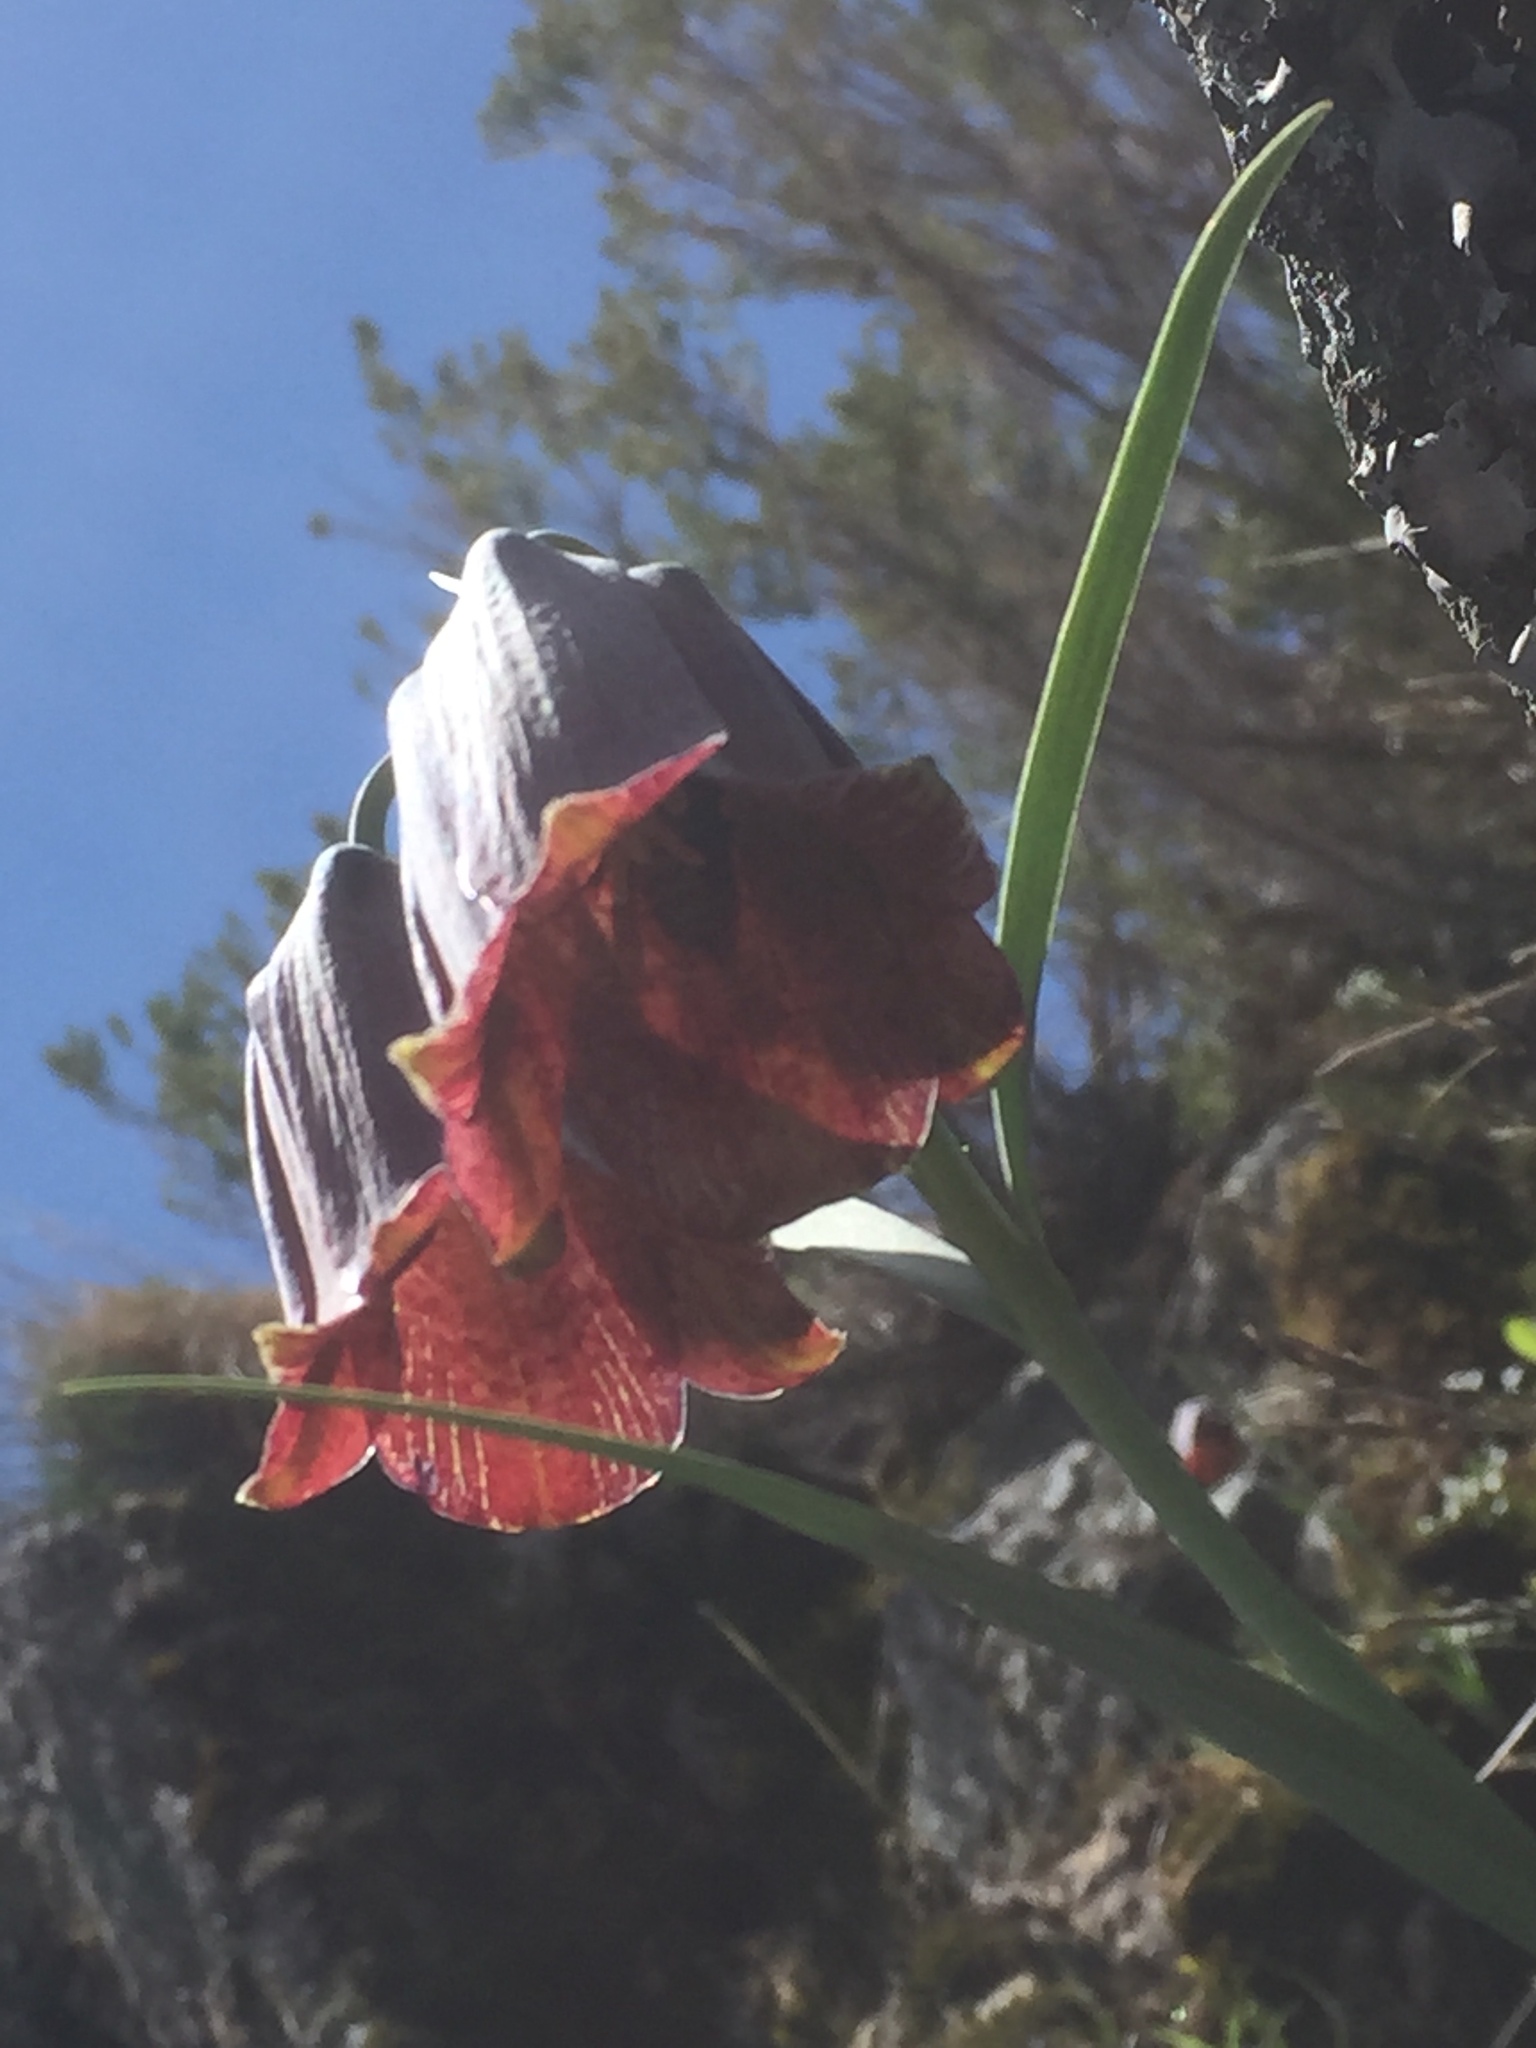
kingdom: Plantae
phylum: Tracheophyta
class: Liliopsida
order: Liliales
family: Liliaceae
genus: Fritillaria
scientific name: Fritillaria lusitanica
